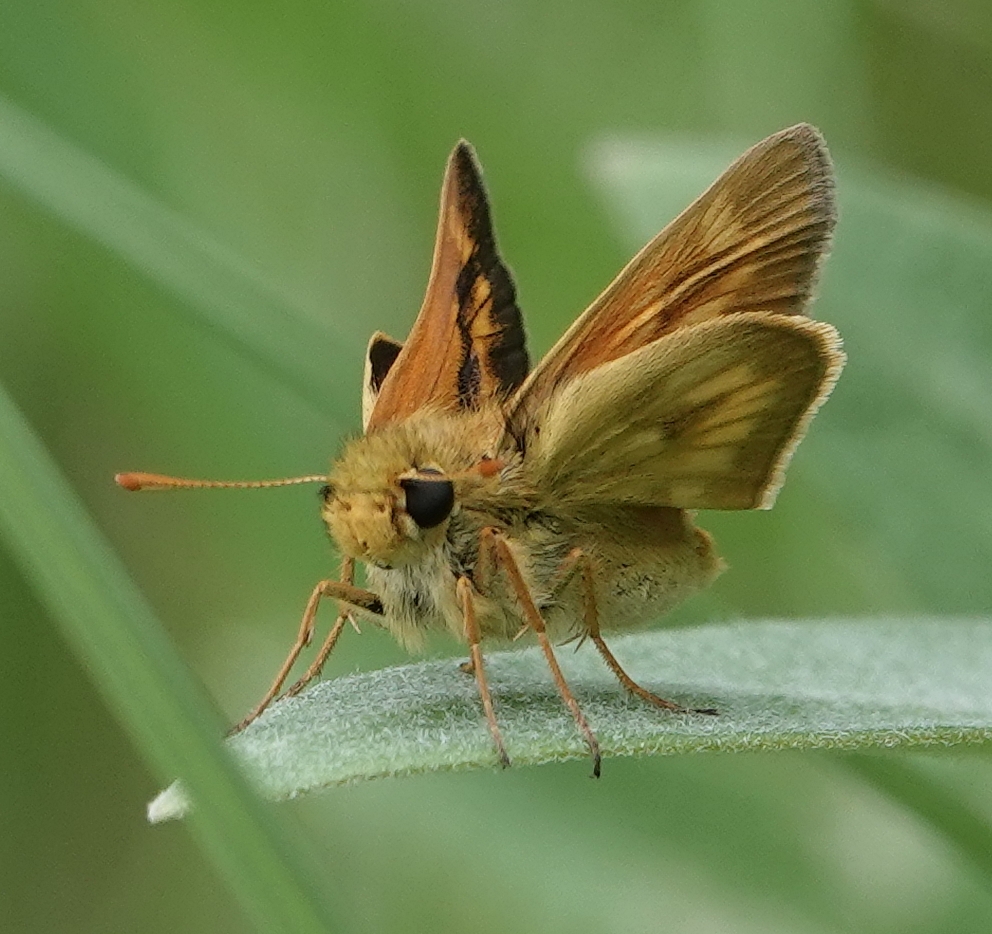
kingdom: Animalia
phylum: Arthropoda
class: Insecta
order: Lepidoptera
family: Hesperiidae
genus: Polites
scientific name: Polites mystic
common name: Long dash
